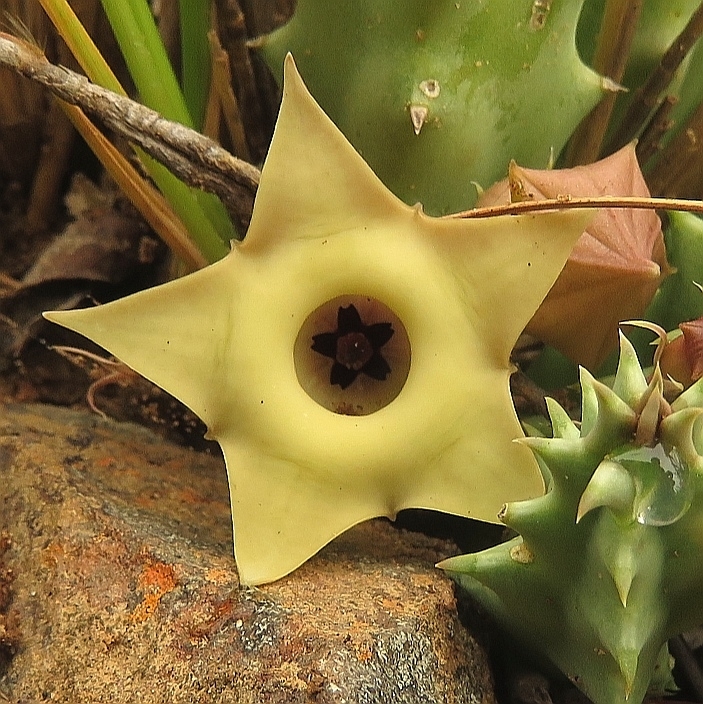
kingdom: Plantae
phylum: Tracheophyta
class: Magnoliopsida
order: Gentianales
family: Apocynaceae
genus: Ceropegia
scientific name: Ceropegia thuretii
